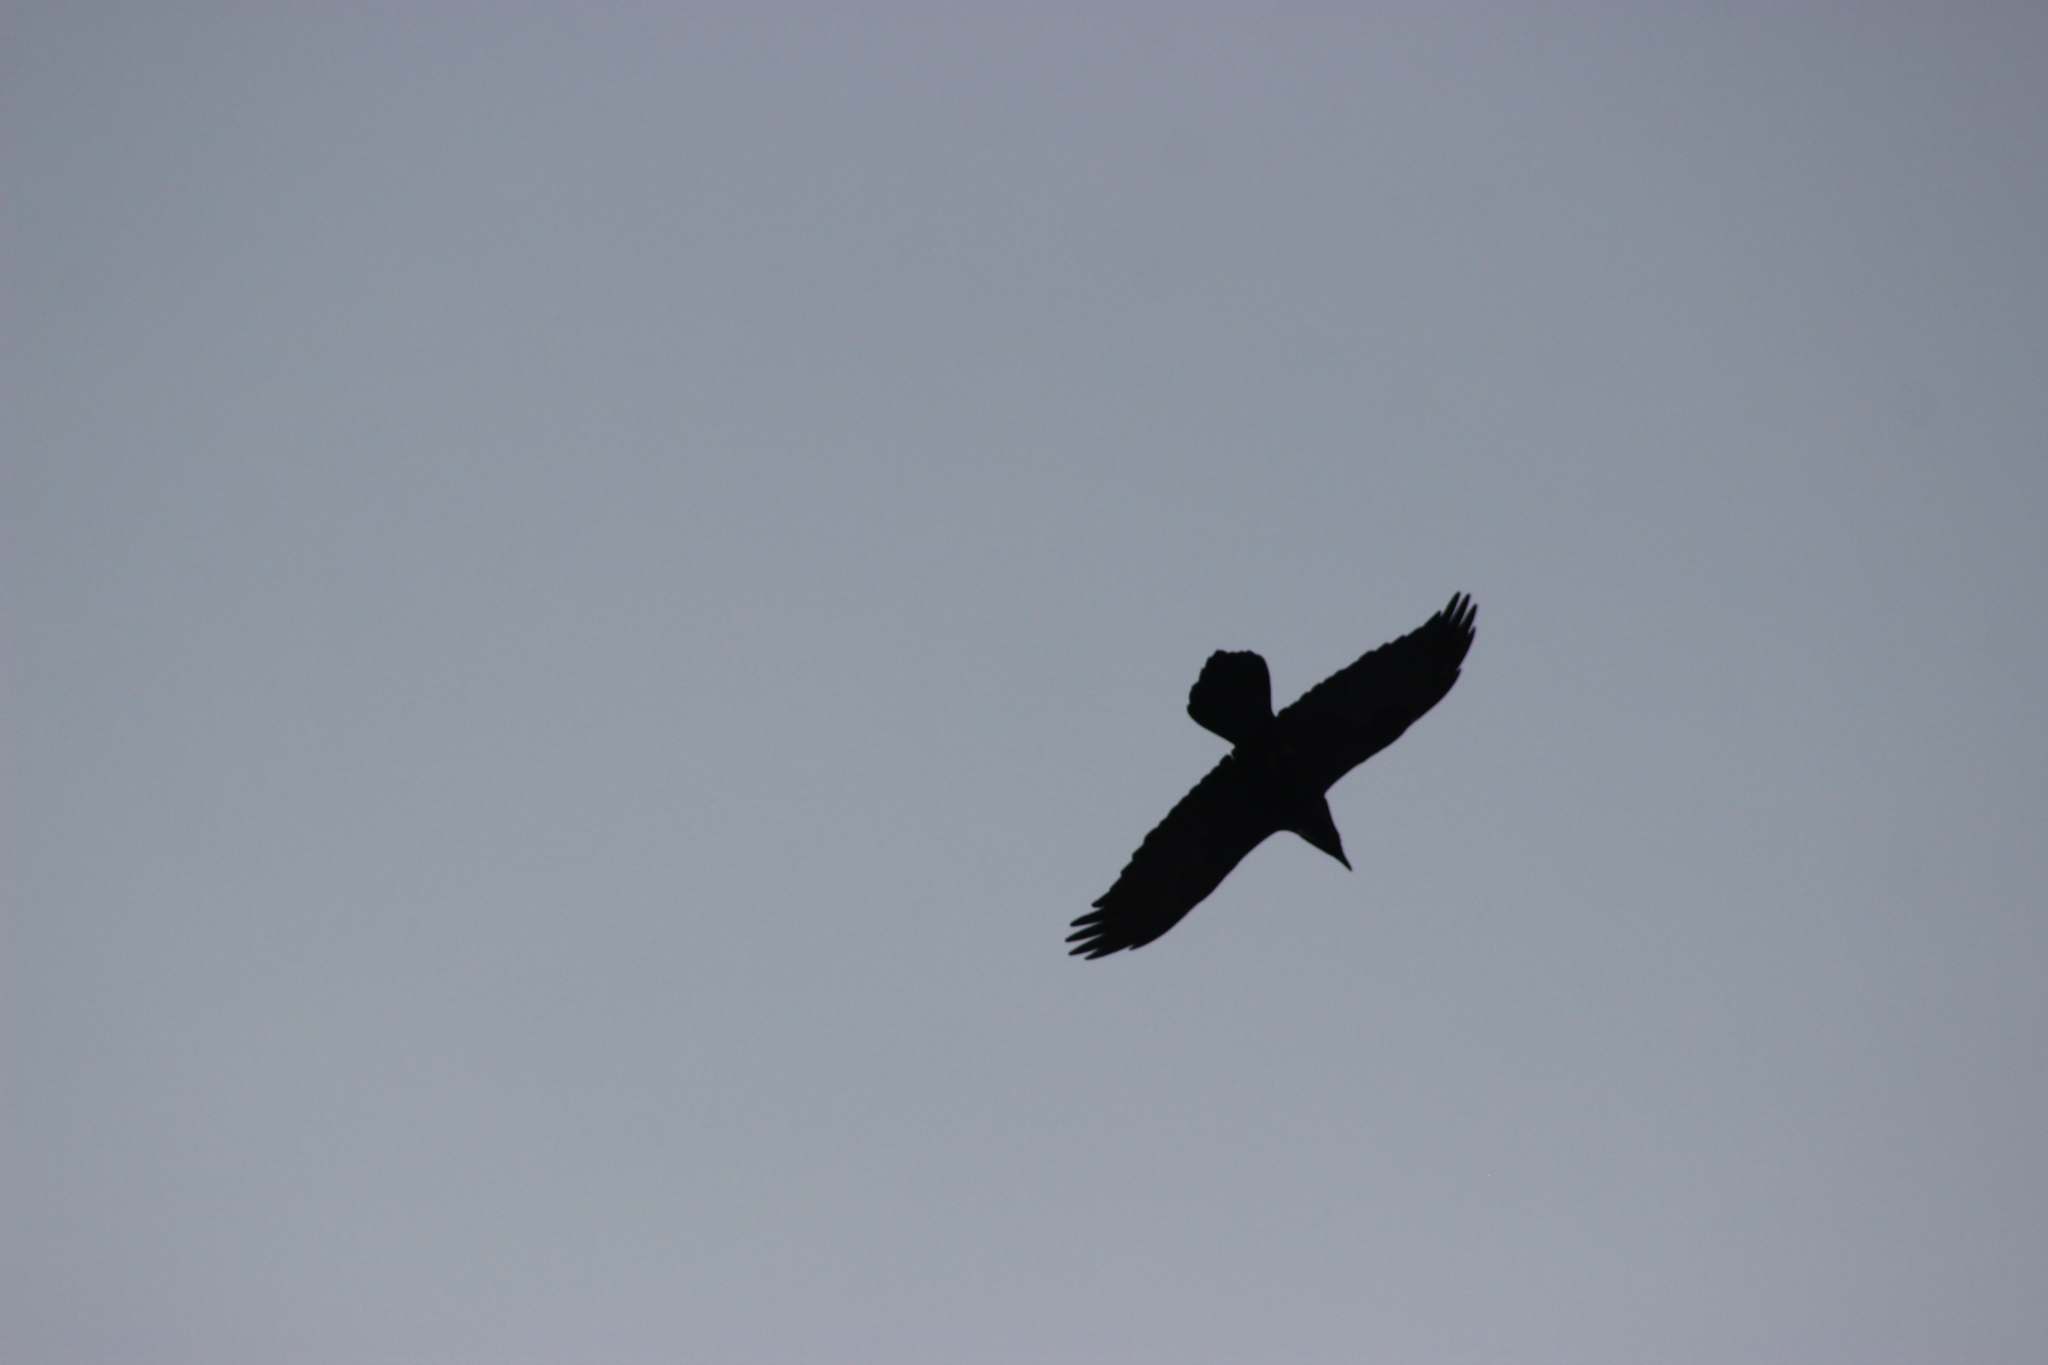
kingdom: Animalia
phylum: Chordata
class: Aves
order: Passeriformes
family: Corvidae
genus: Corvus
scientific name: Corvus corax
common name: Common raven
